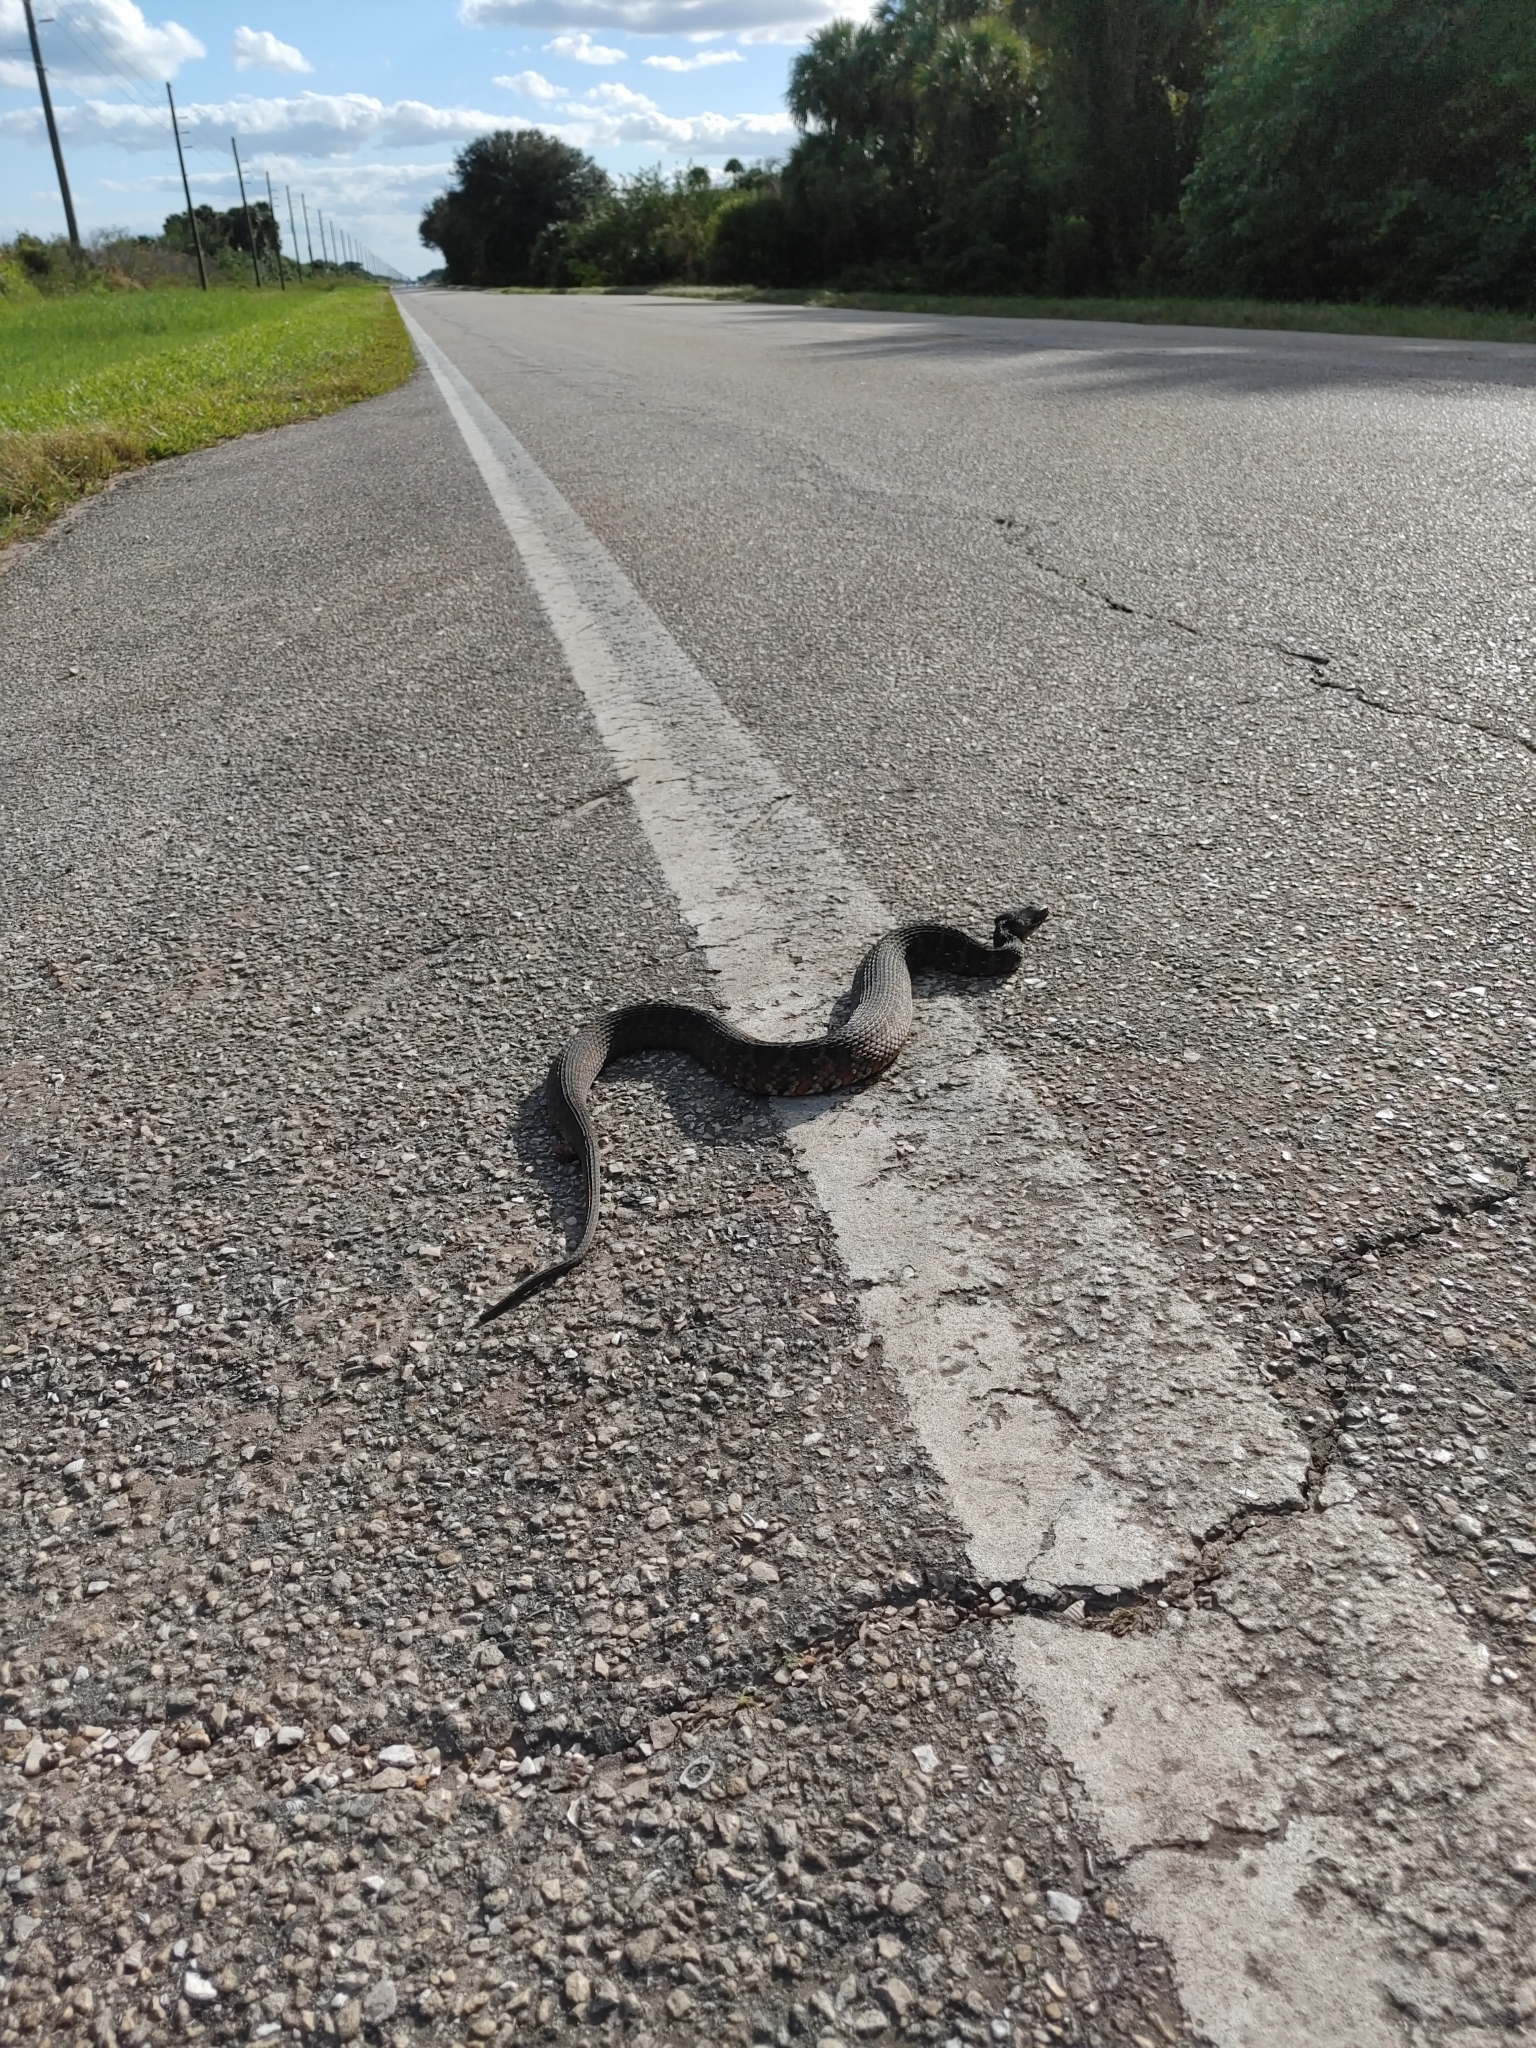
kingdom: Animalia
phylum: Chordata
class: Squamata
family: Colubridae
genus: Nerodia
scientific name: Nerodia fasciata
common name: Southern water snake
